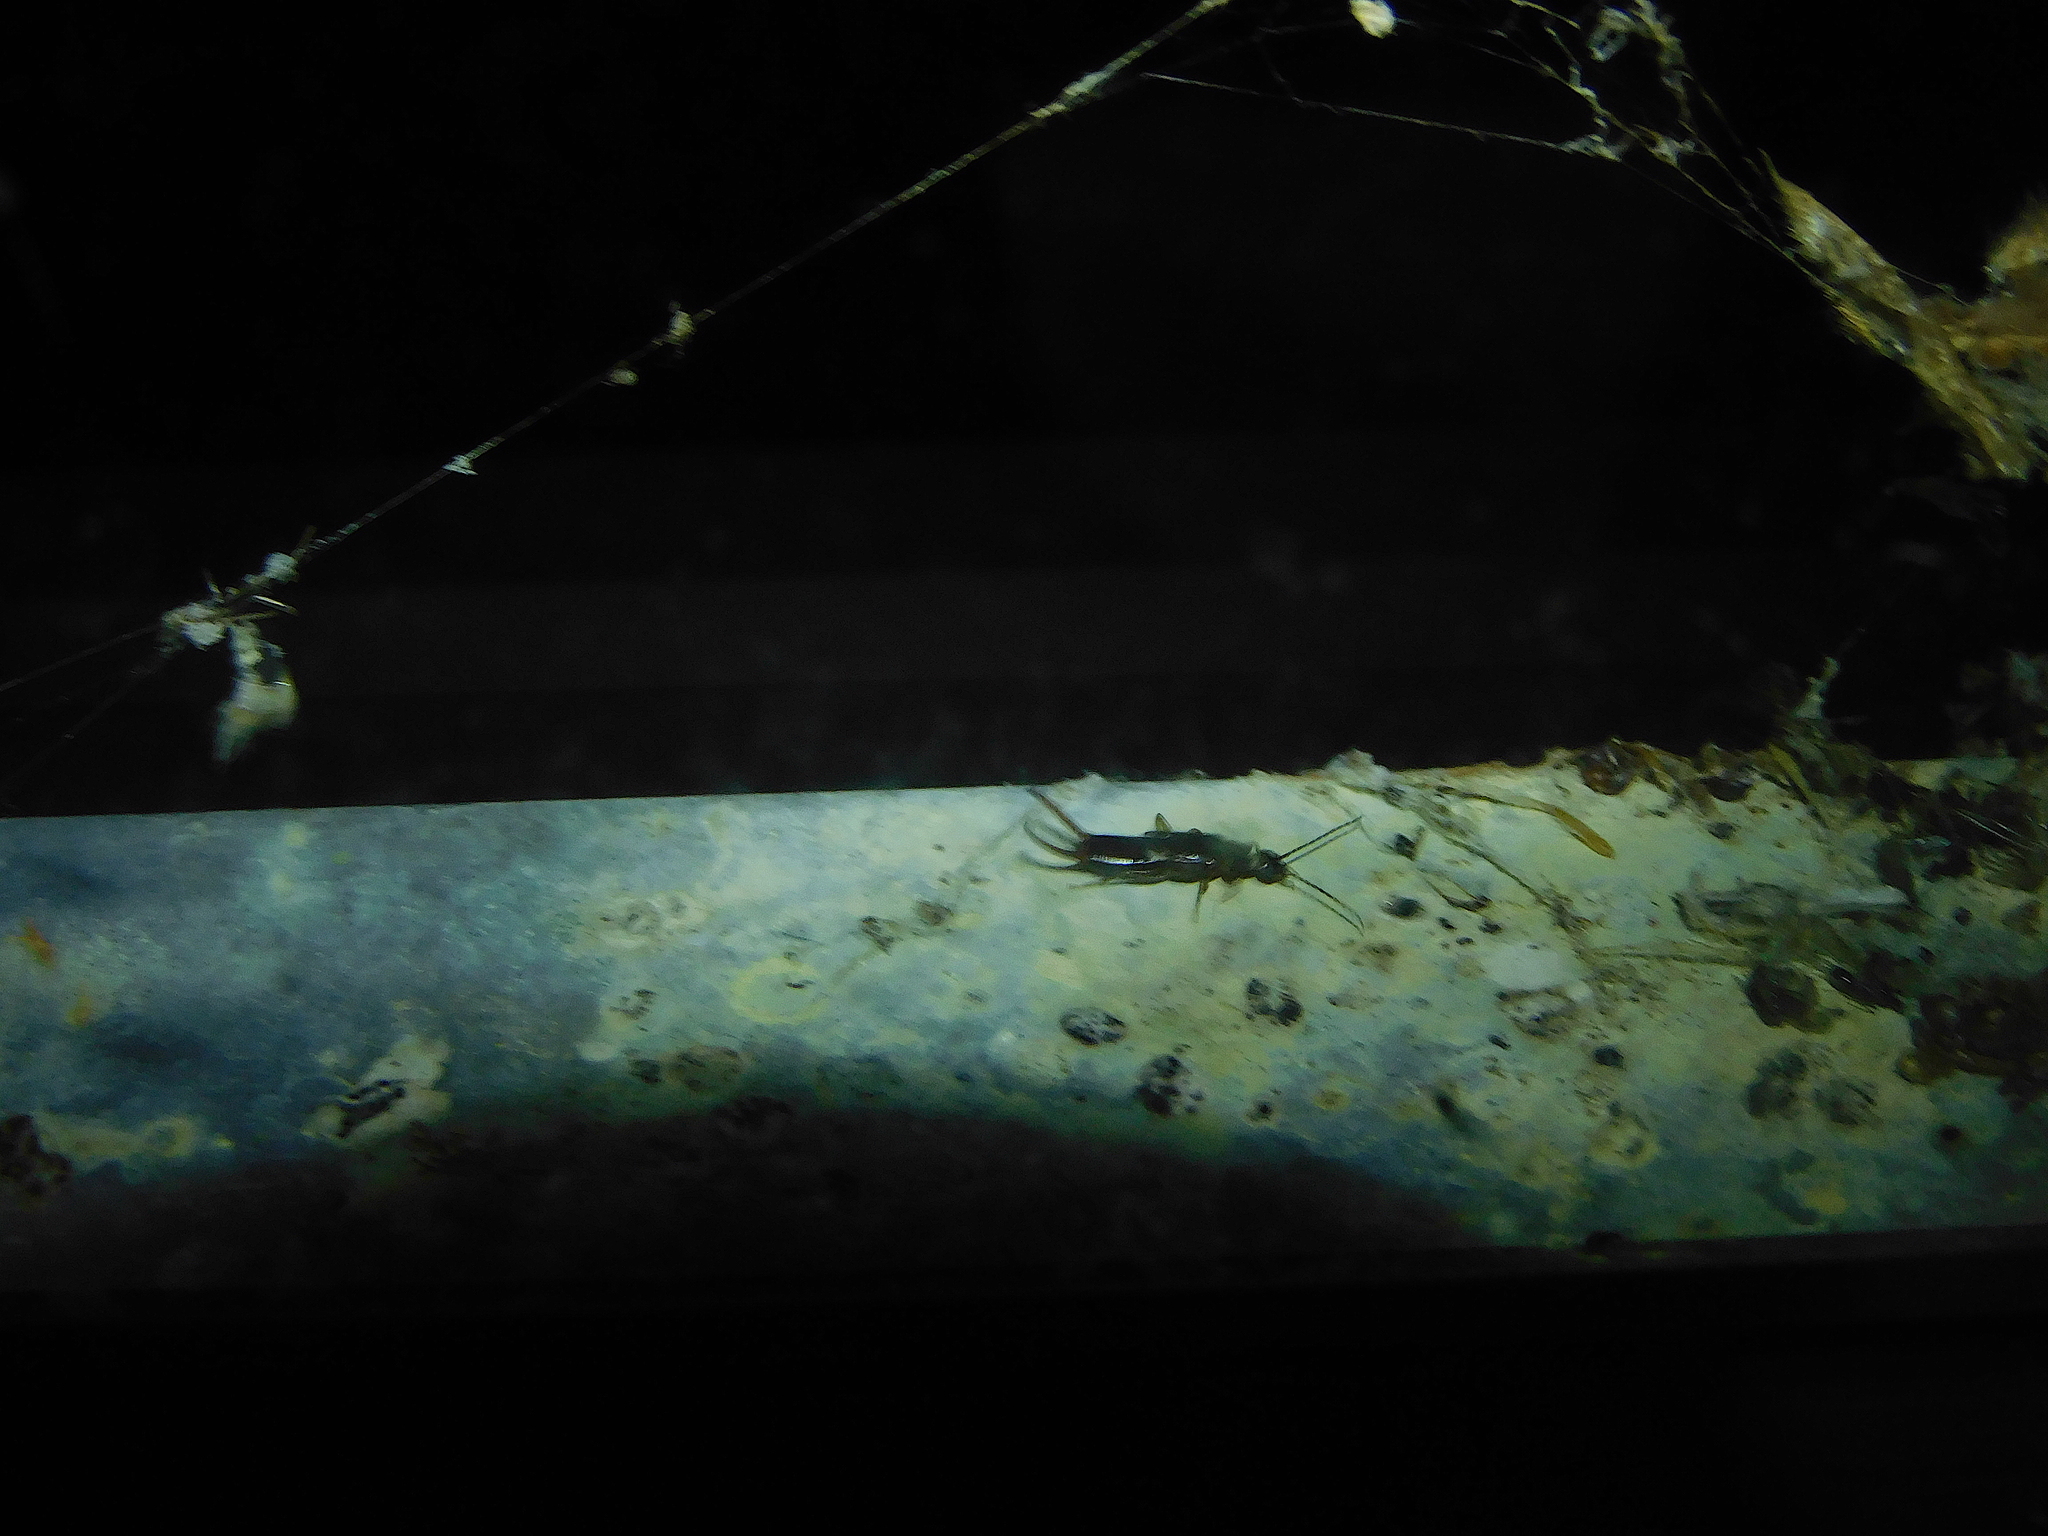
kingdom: Animalia
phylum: Arthropoda
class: Insecta
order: Dermaptera
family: Spongiphoridae
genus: Nesogaster
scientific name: Nesogaster halli
